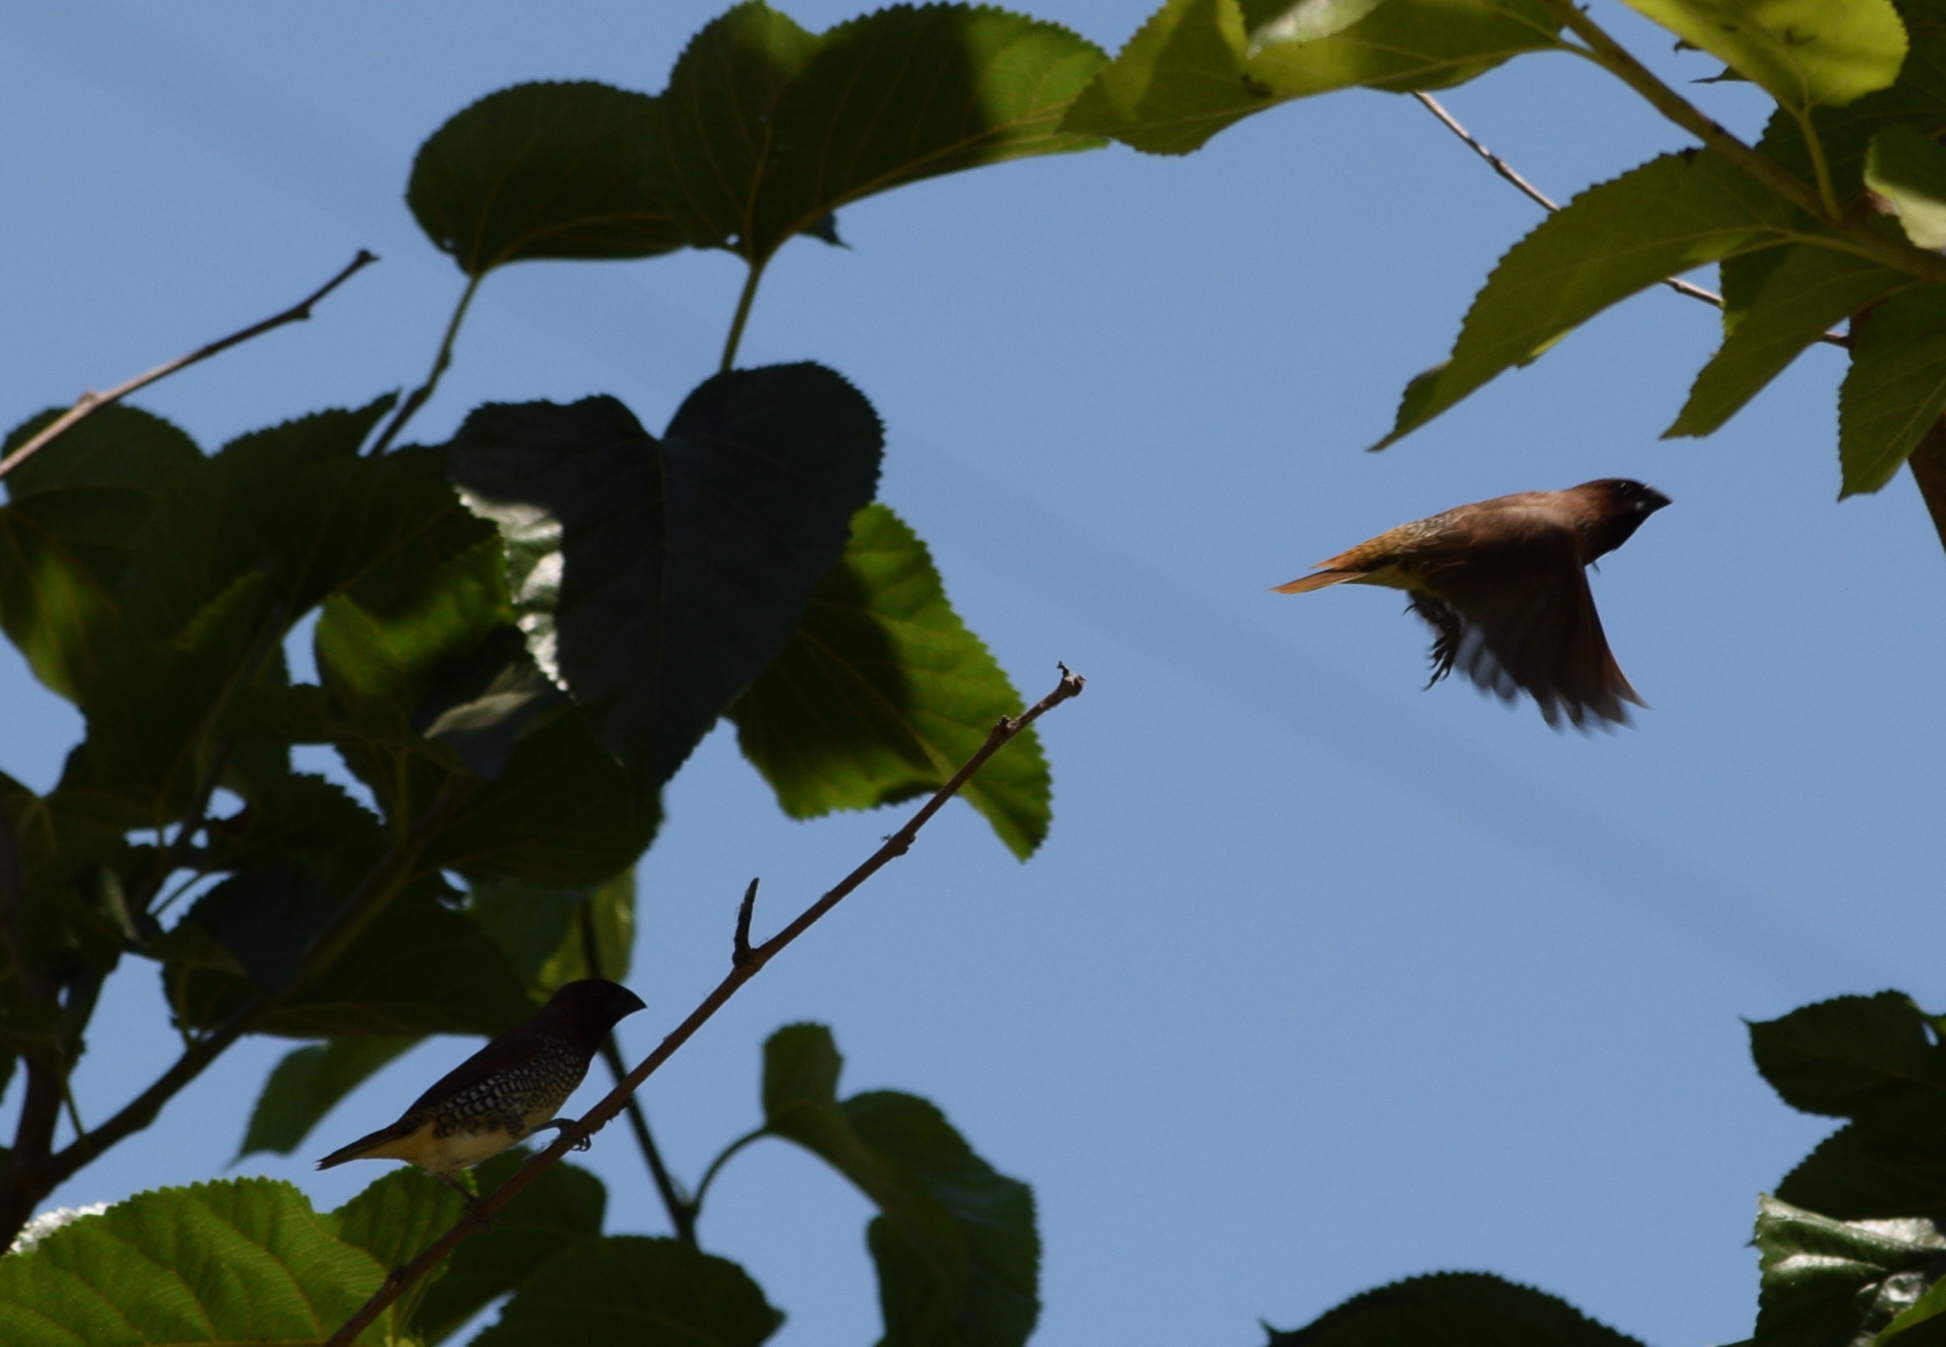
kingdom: Animalia
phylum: Chordata
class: Aves
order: Passeriformes
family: Estrildidae
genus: Lonchura
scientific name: Lonchura punctulata
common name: Scaly-breasted munia
